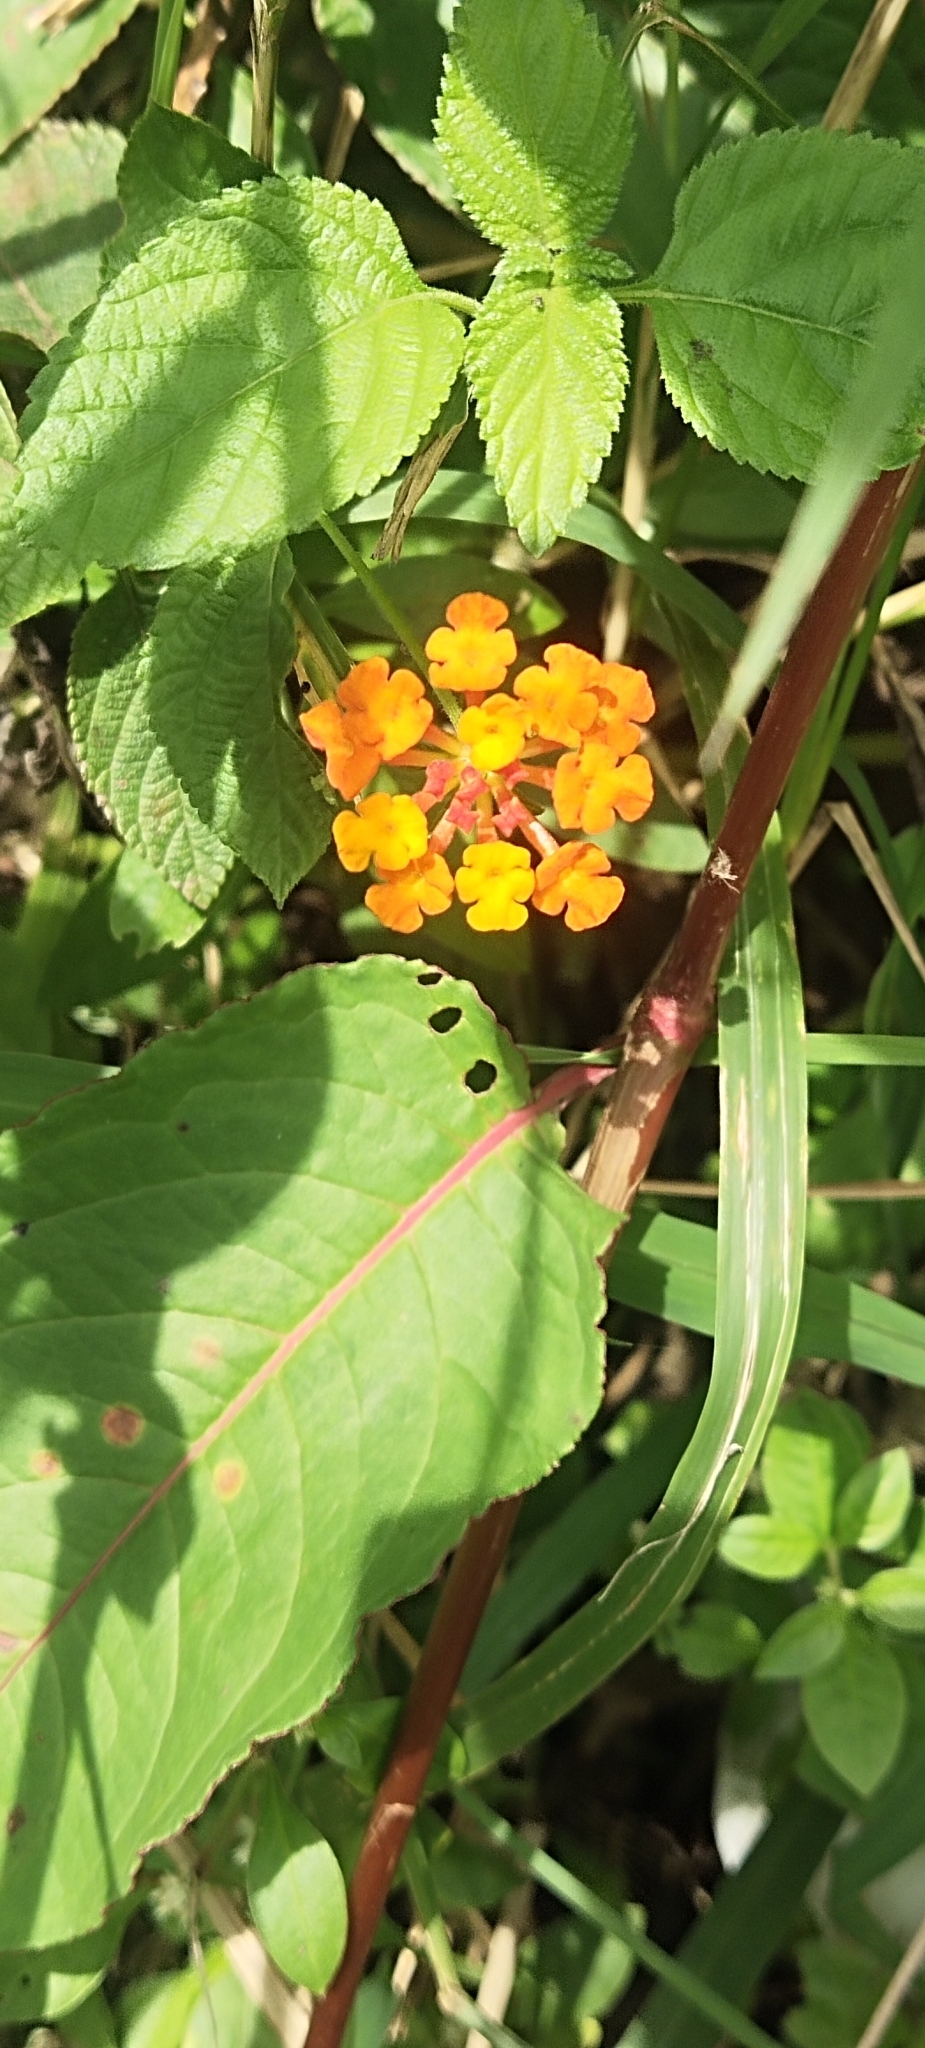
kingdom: Plantae
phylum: Tracheophyta
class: Magnoliopsida
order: Lamiales
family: Verbenaceae
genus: Lantana
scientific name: Lantana camara
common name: Lantana
